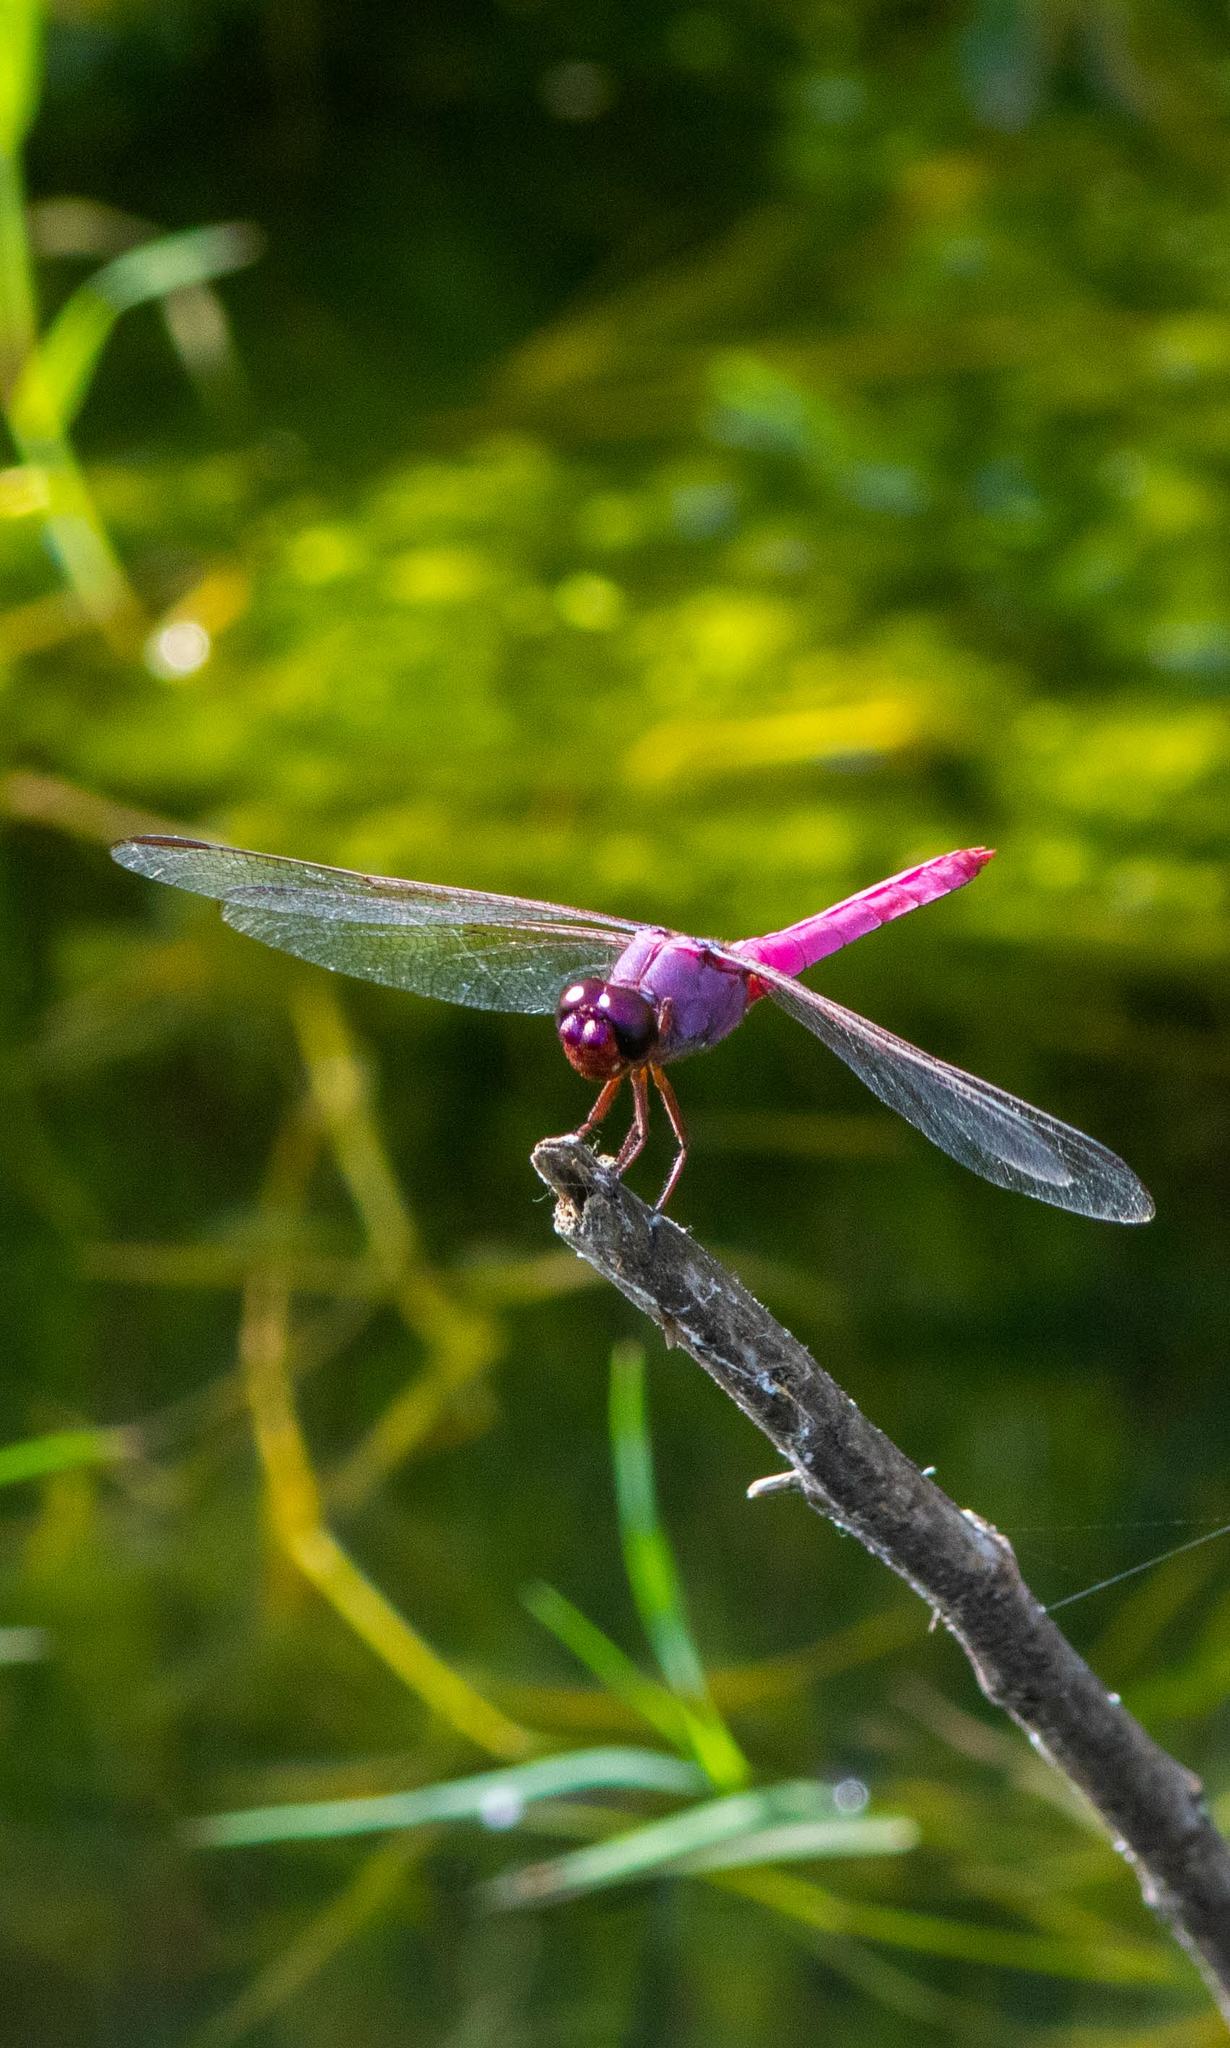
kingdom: Animalia
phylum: Arthropoda
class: Insecta
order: Odonata
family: Libellulidae
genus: Orthemis
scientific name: Orthemis ferruginea
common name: Roseate skimmer
